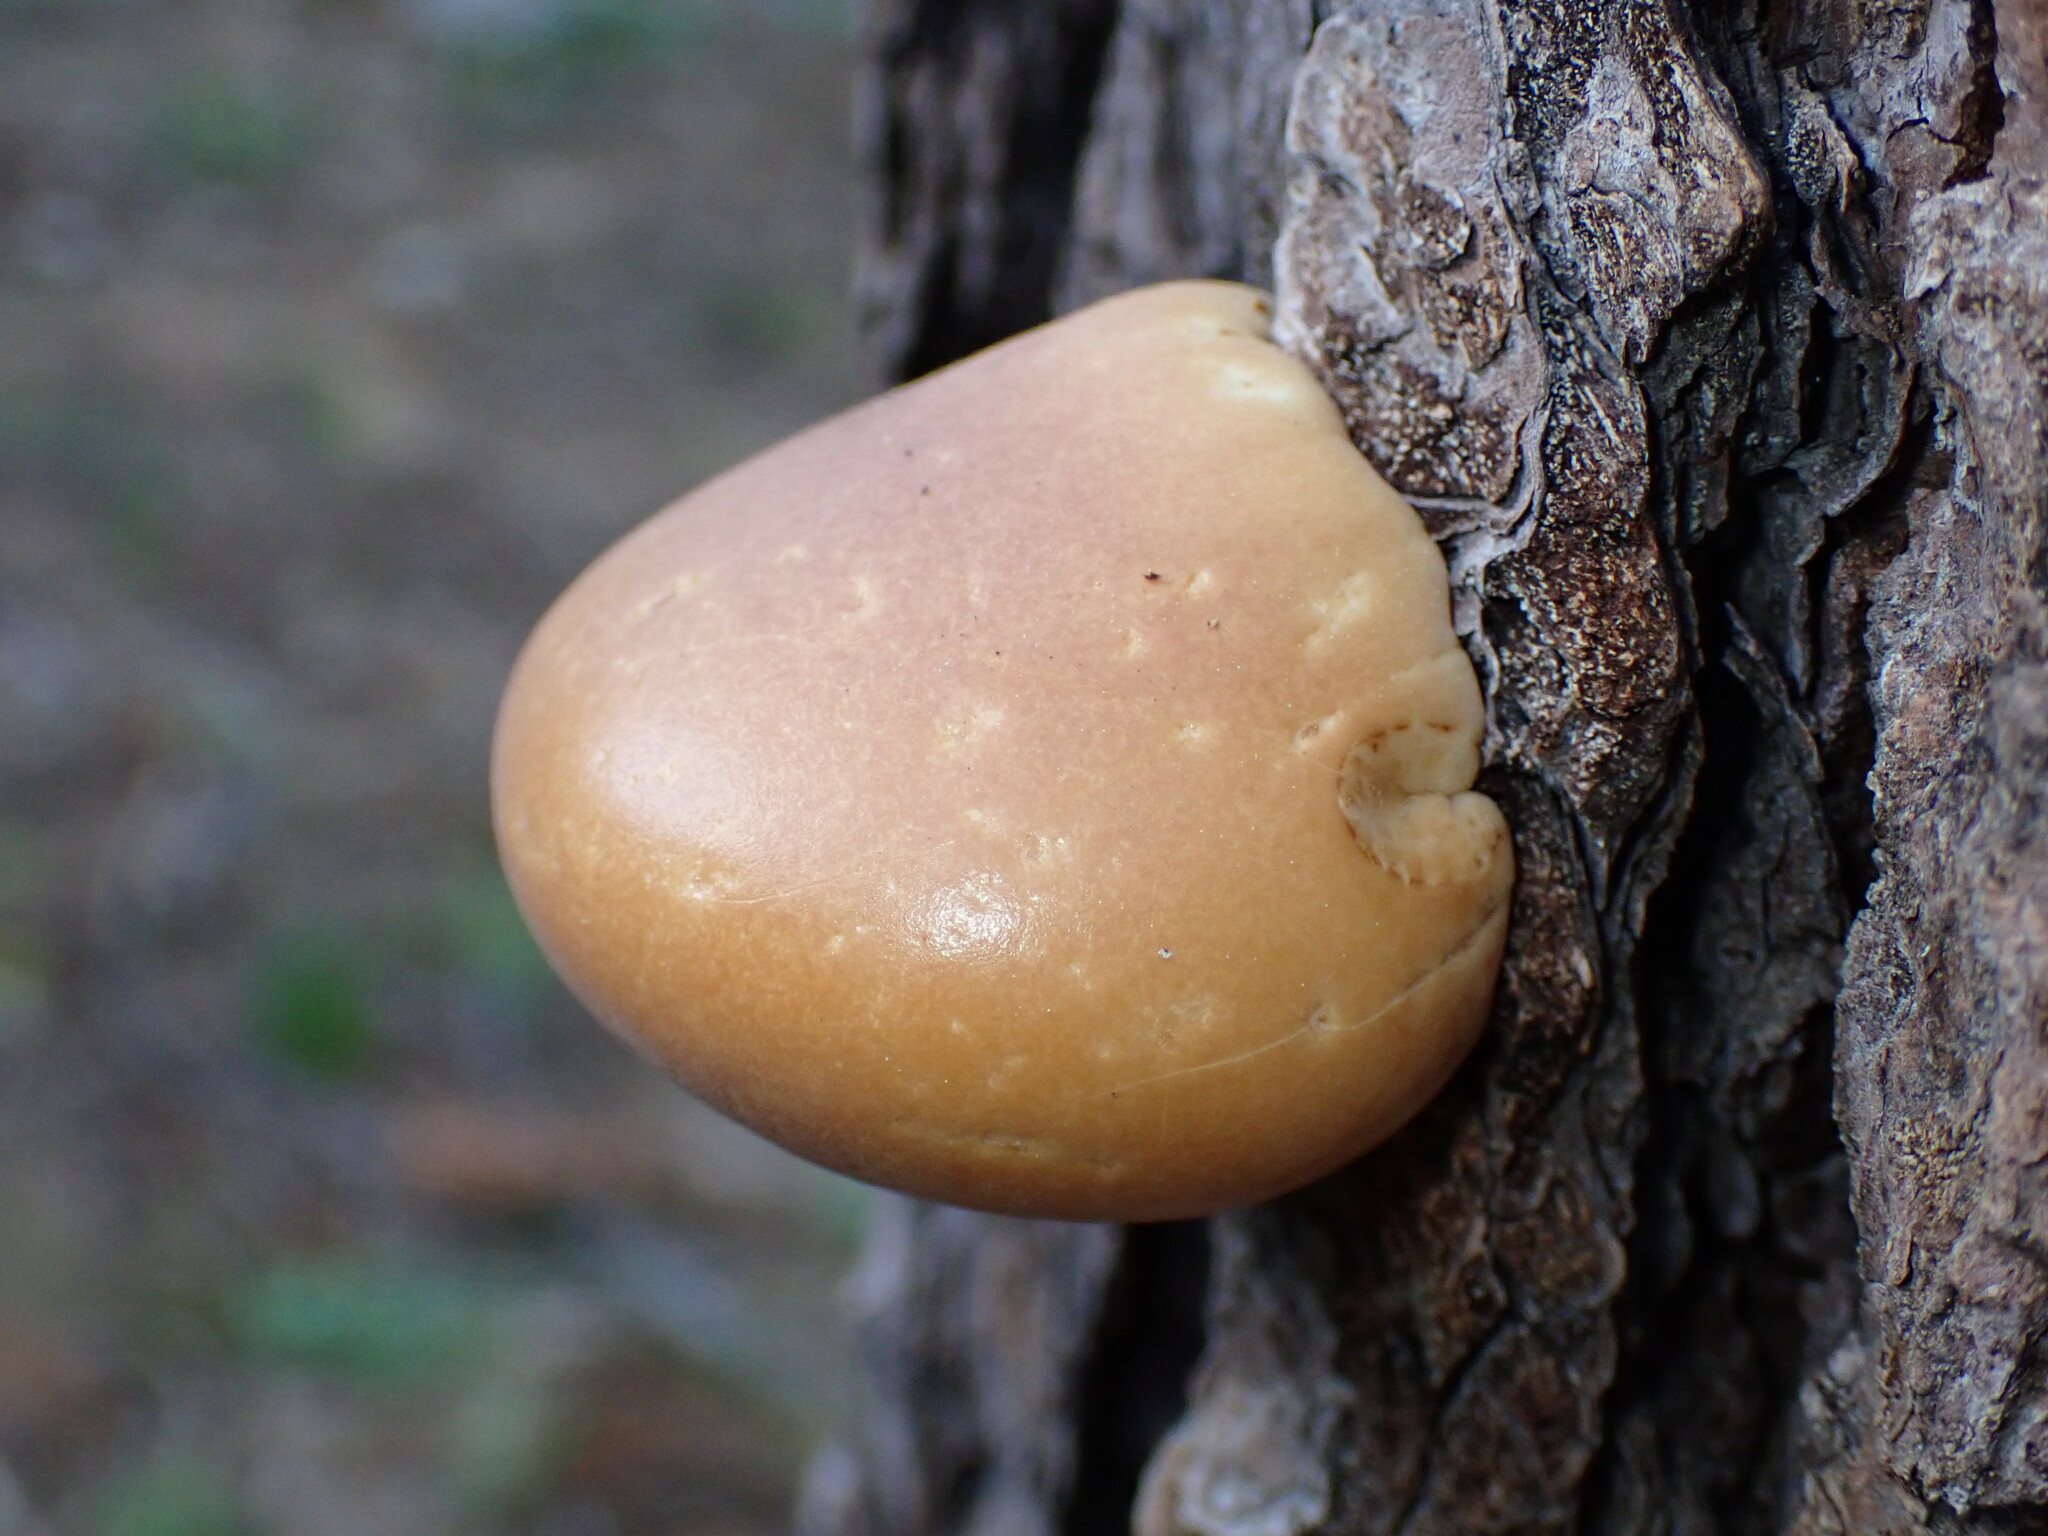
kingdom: Fungi
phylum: Basidiomycota
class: Agaricomycetes
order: Polyporales
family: Polyporaceae
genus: Cryptoporus
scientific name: Cryptoporus volvatus
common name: Veiled polypore
